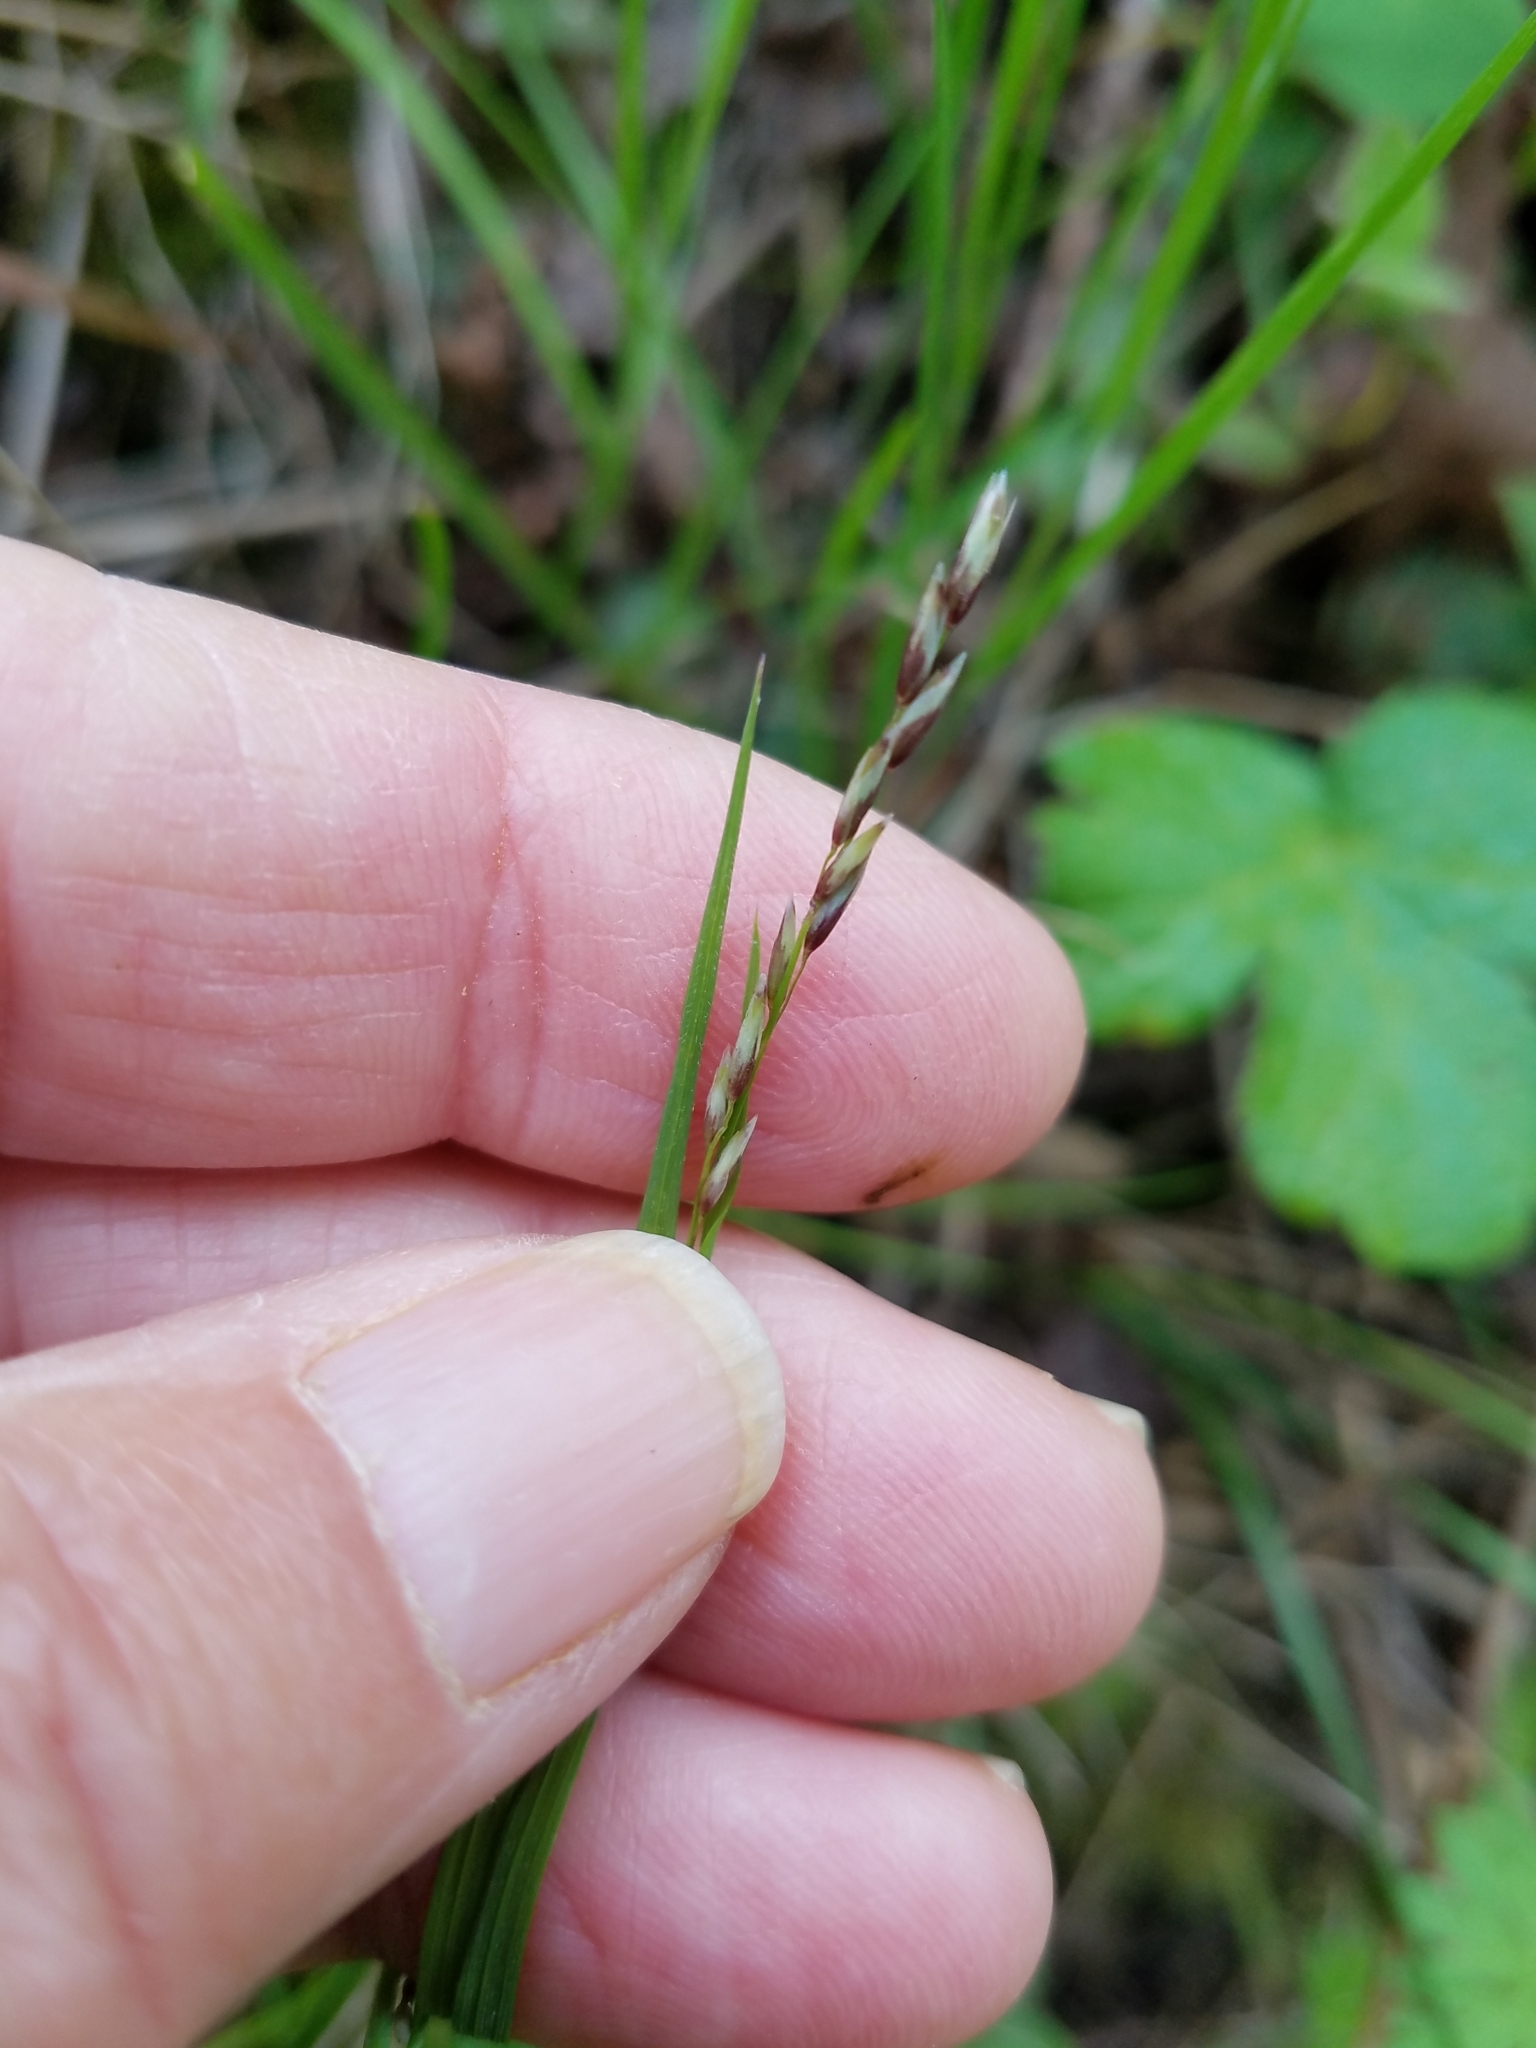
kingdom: Plantae
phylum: Tracheophyta
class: Liliopsida
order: Poales
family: Poaceae
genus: Melica
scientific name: Melica torreyana
